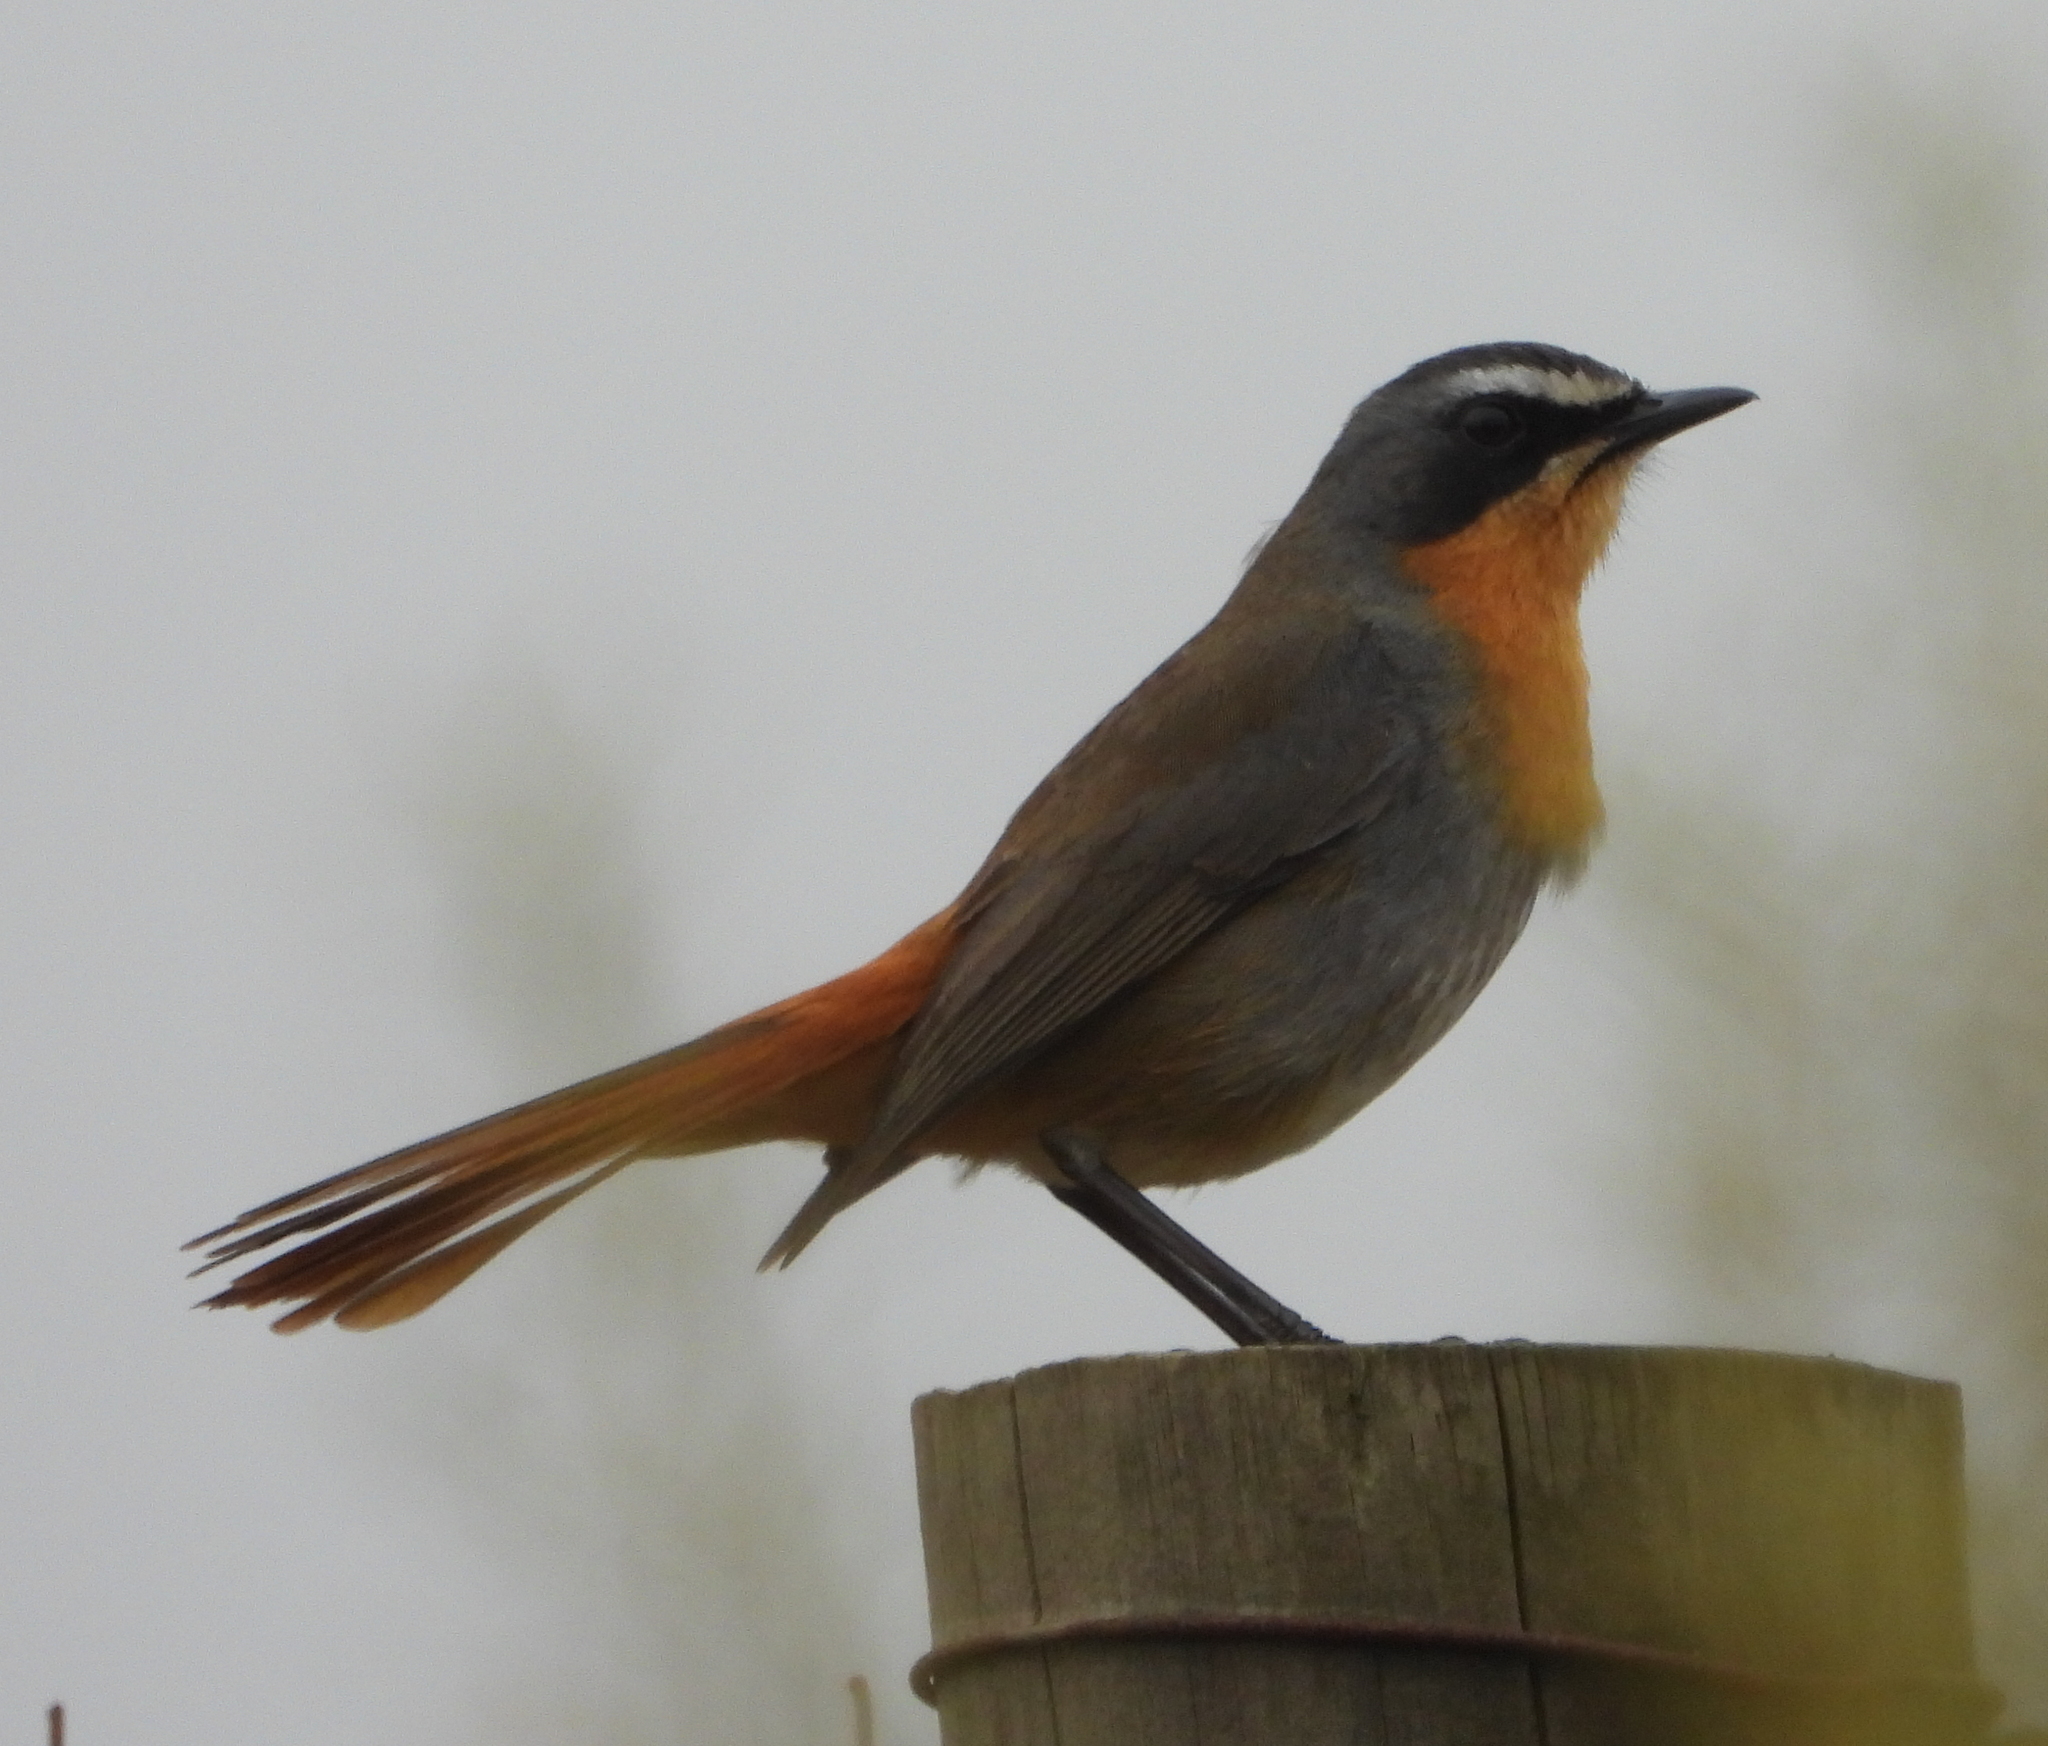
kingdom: Animalia
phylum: Chordata
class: Aves
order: Passeriformes
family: Muscicapidae
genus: Cossypha
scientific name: Cossypha caffra
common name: Cape robin-chat
